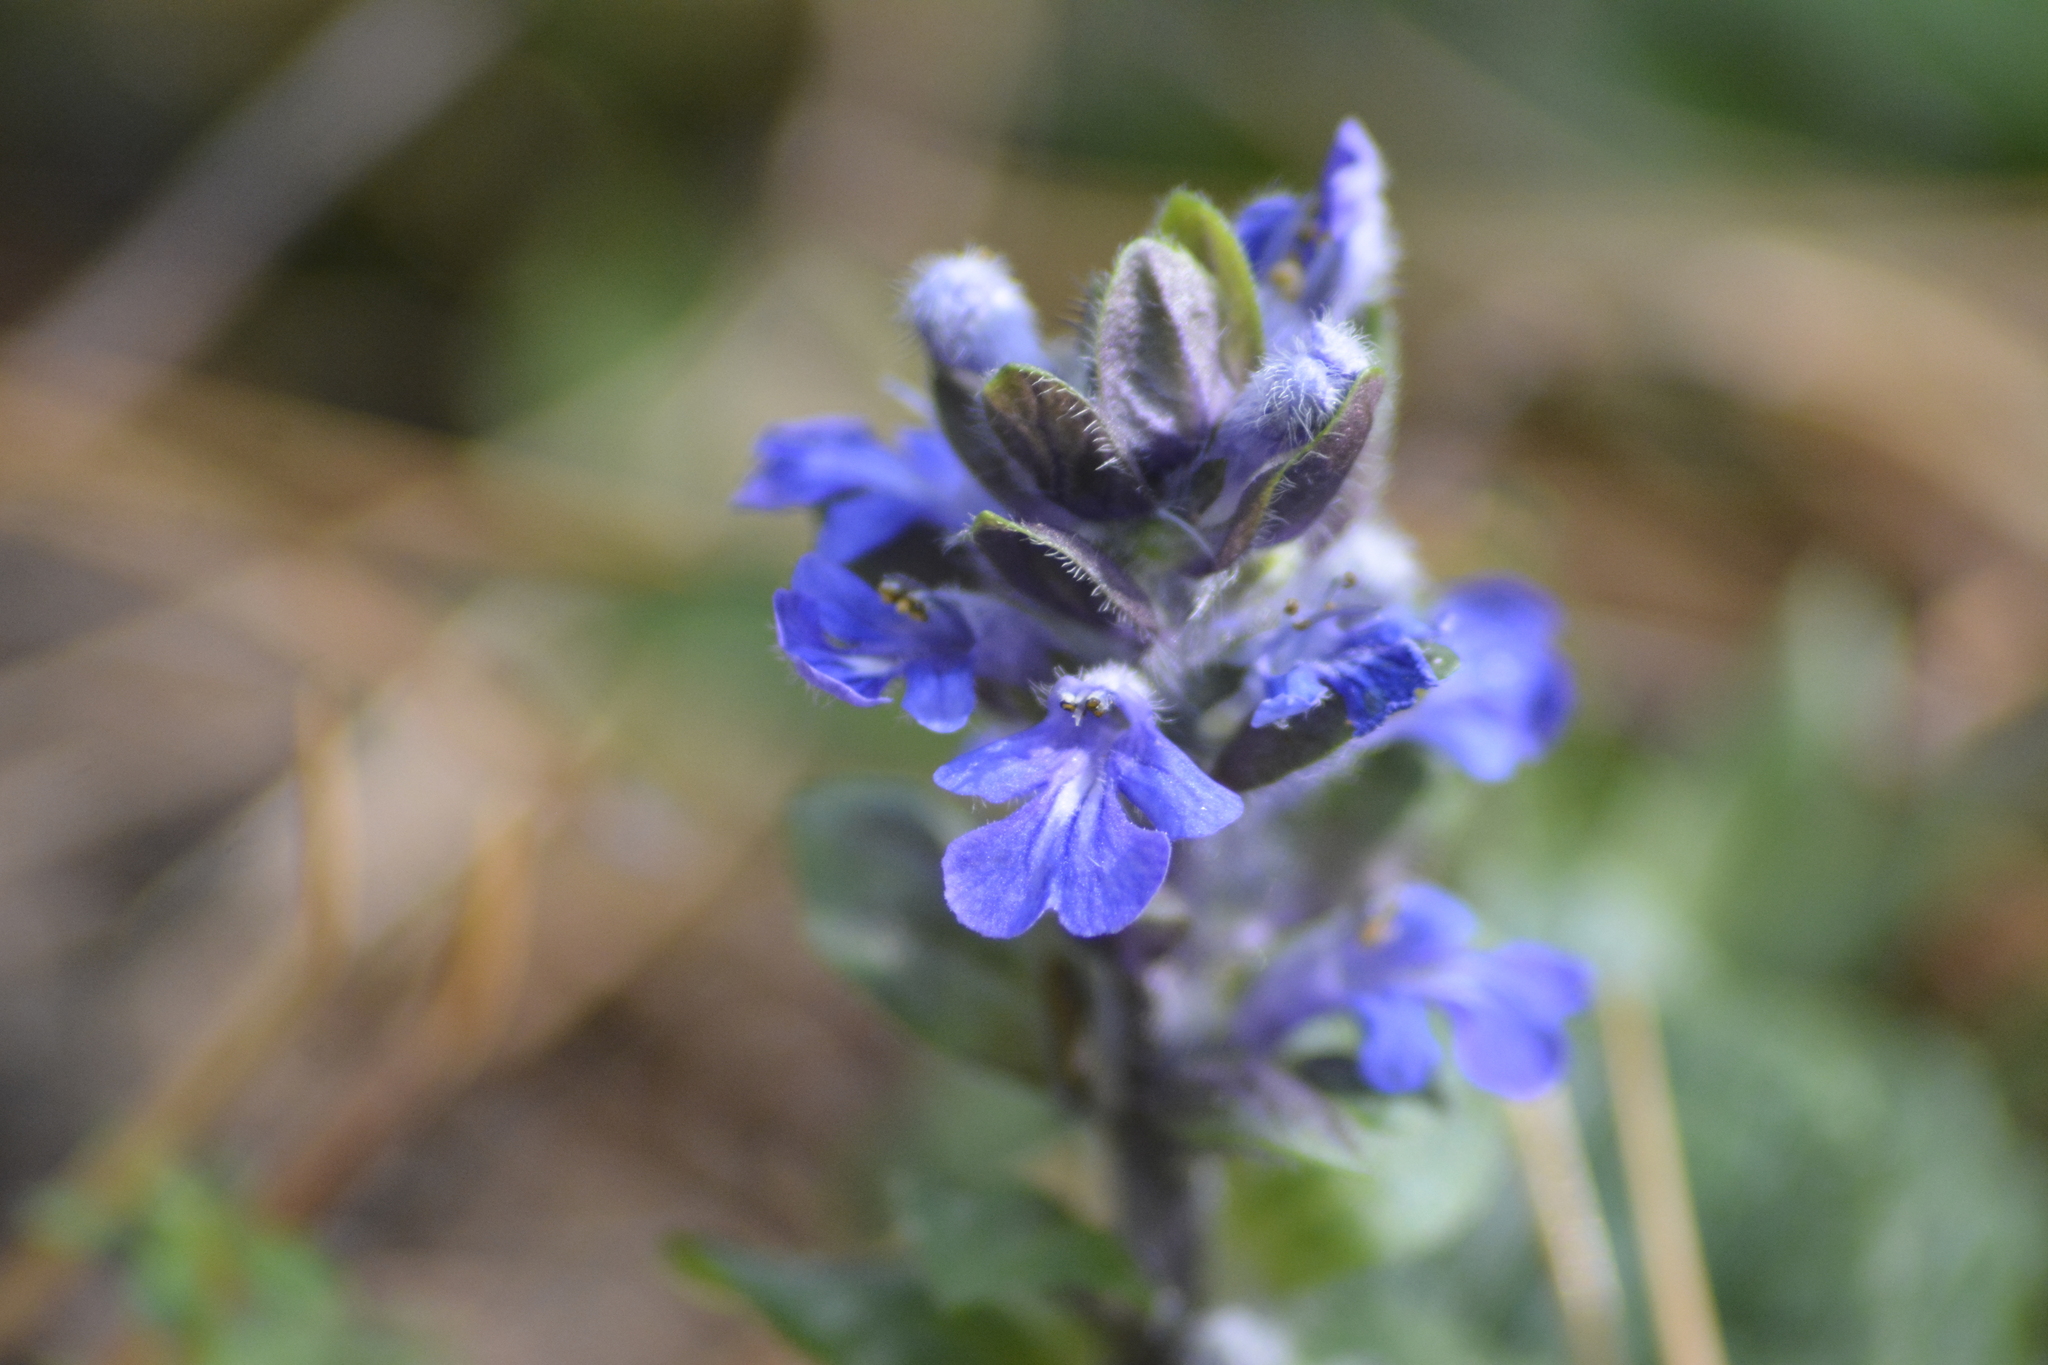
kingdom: Plantae
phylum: Tracheophyta
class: Magnoliopsida
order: Lamiales
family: Lamiaceae
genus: Ajuga
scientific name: Ajuga reptans
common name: Bugle
